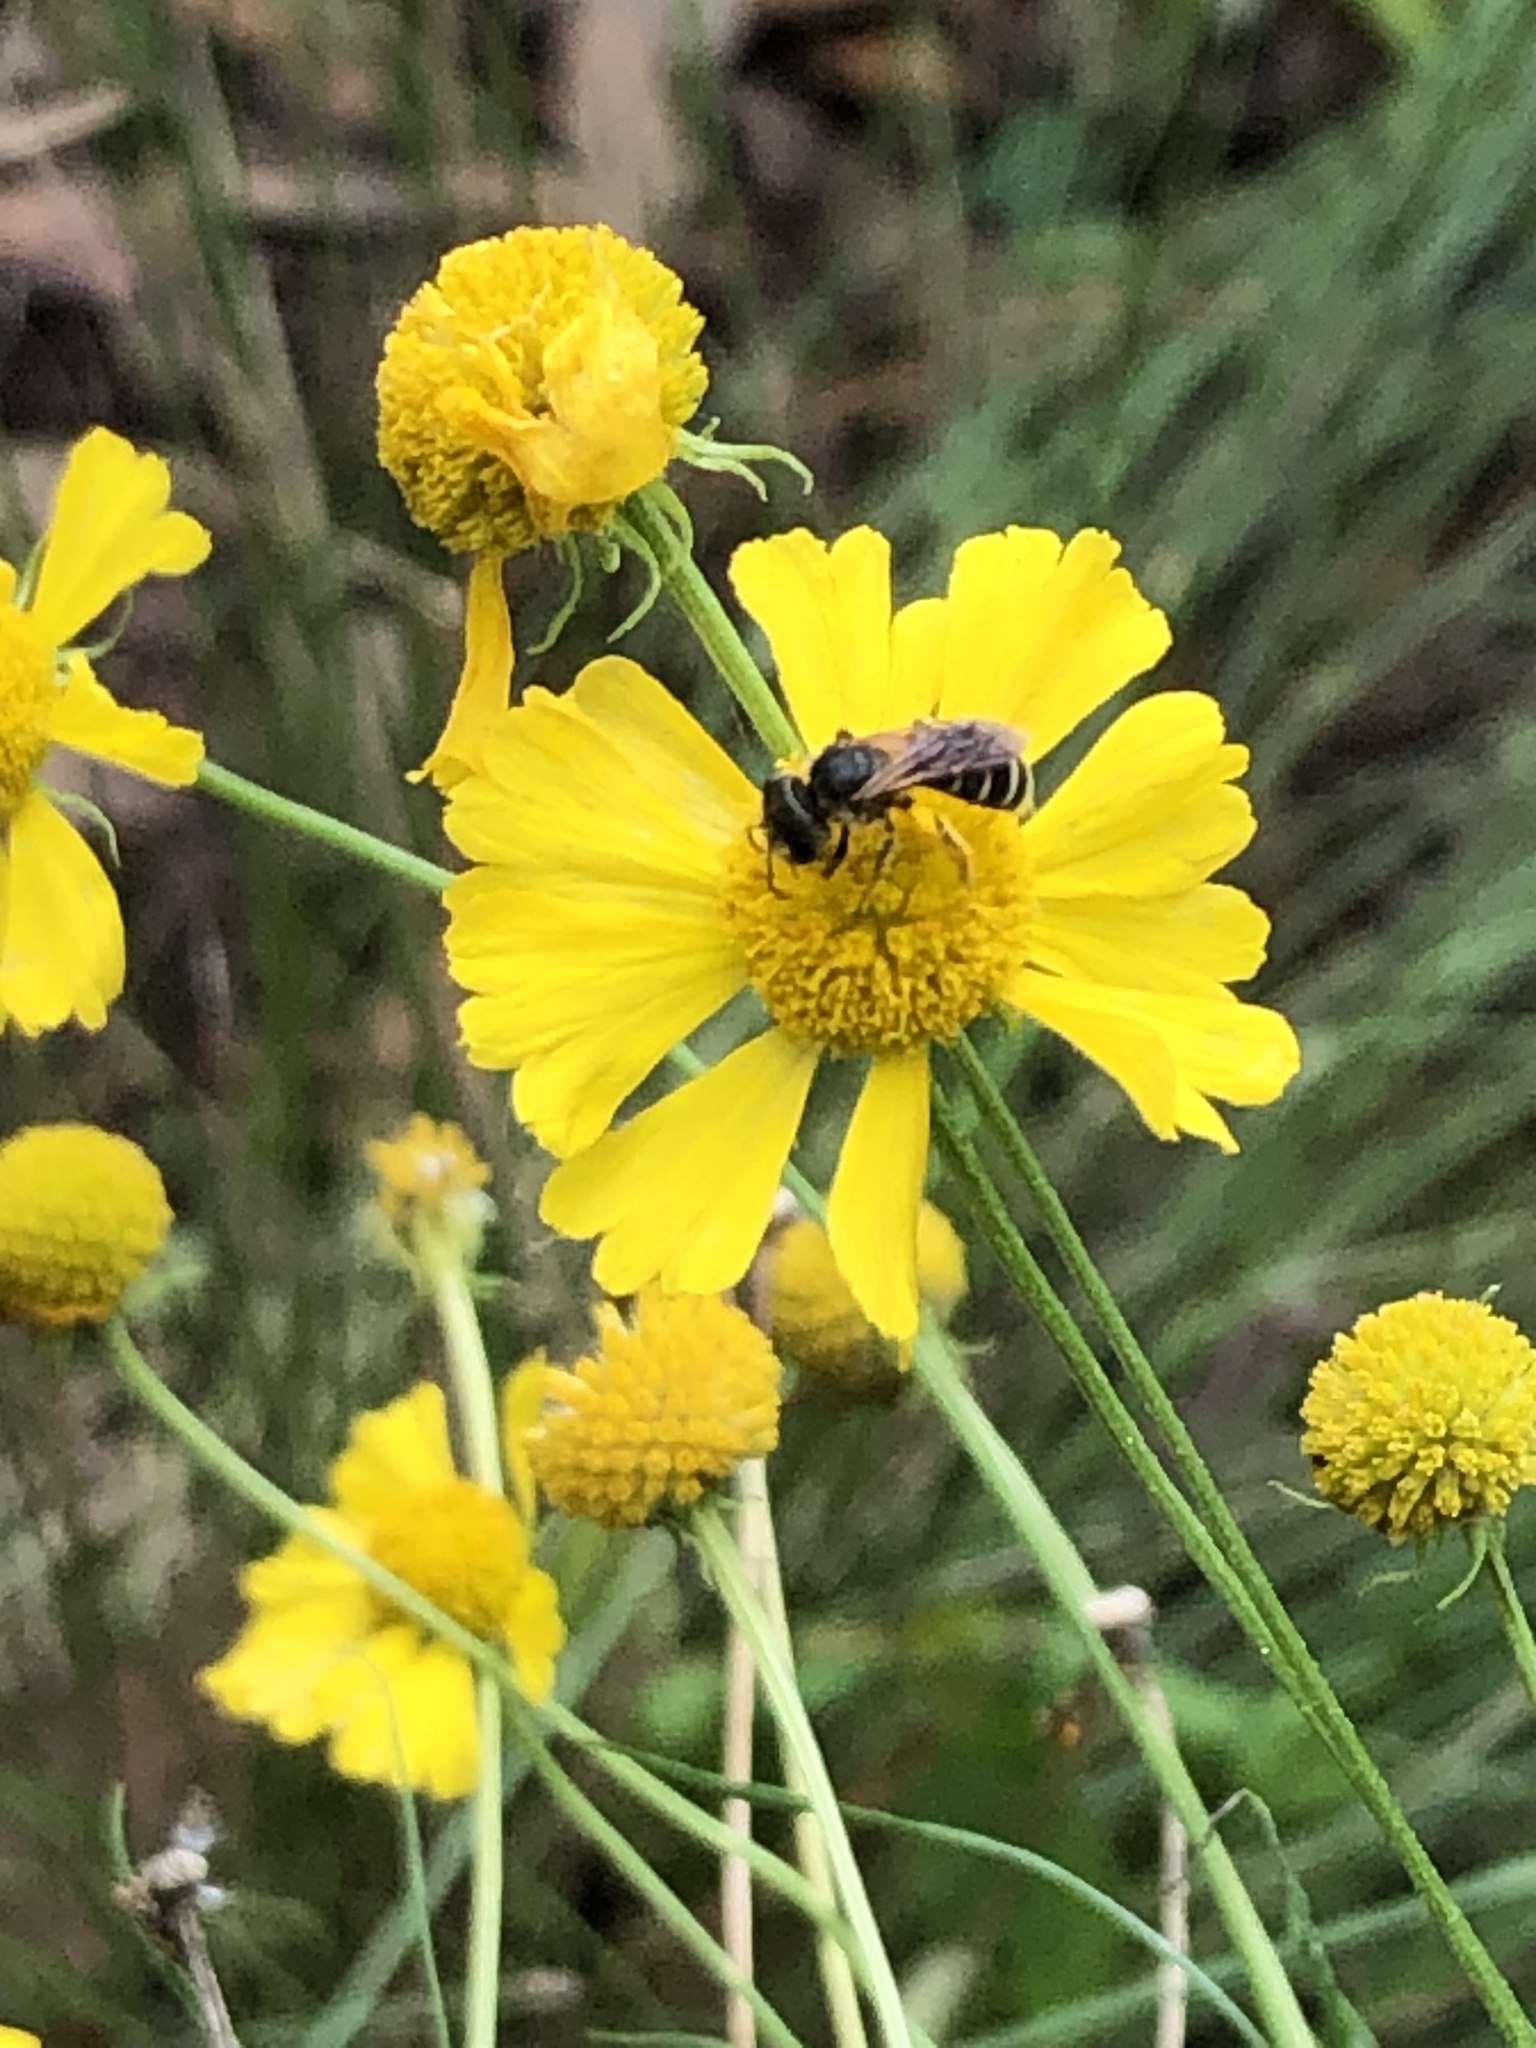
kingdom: Animalia
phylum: Arthropoda
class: Insecta
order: Hymenoptera
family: Halictidae
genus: Halictus
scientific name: Halictus poeyi
